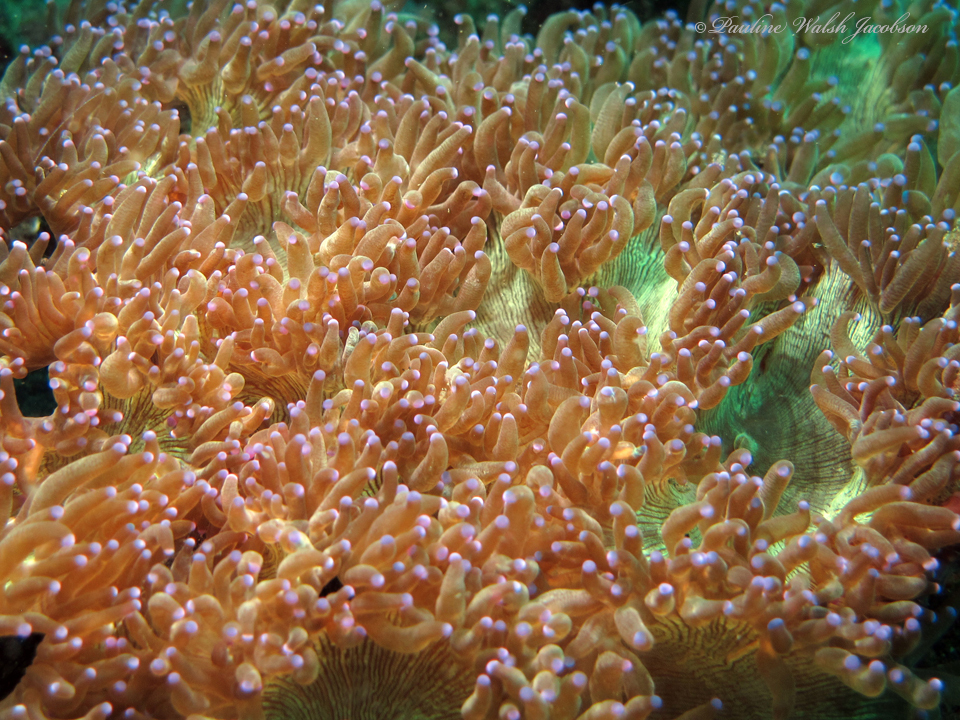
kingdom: Animalia
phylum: Cnidaria
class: Anthozoa
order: Scleractinia
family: Merulinidae
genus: Catalaphyllia
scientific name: Catalaphyllia jardinei
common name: Wonder coral
